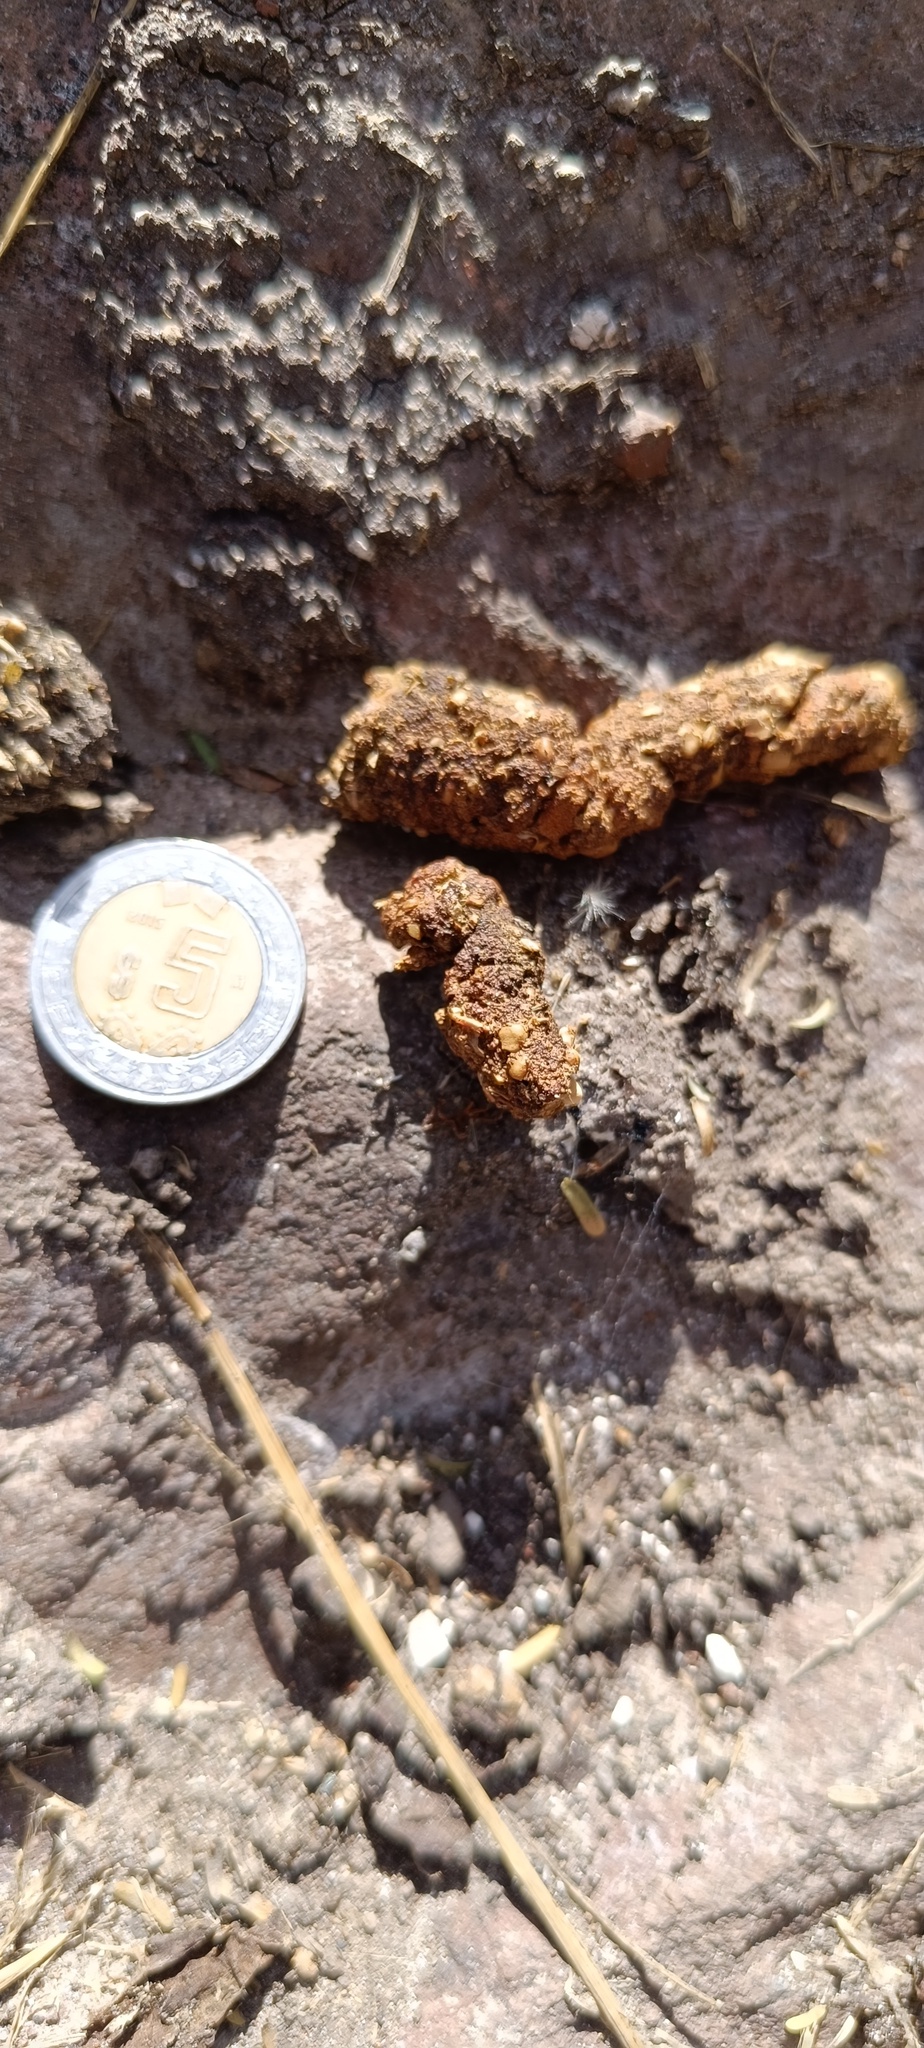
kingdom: Animalia
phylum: Chordata
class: Mammalia
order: Carnivora
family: Procyonidae
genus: Bassariscus
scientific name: Bassariscus astutus
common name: Ringtail
